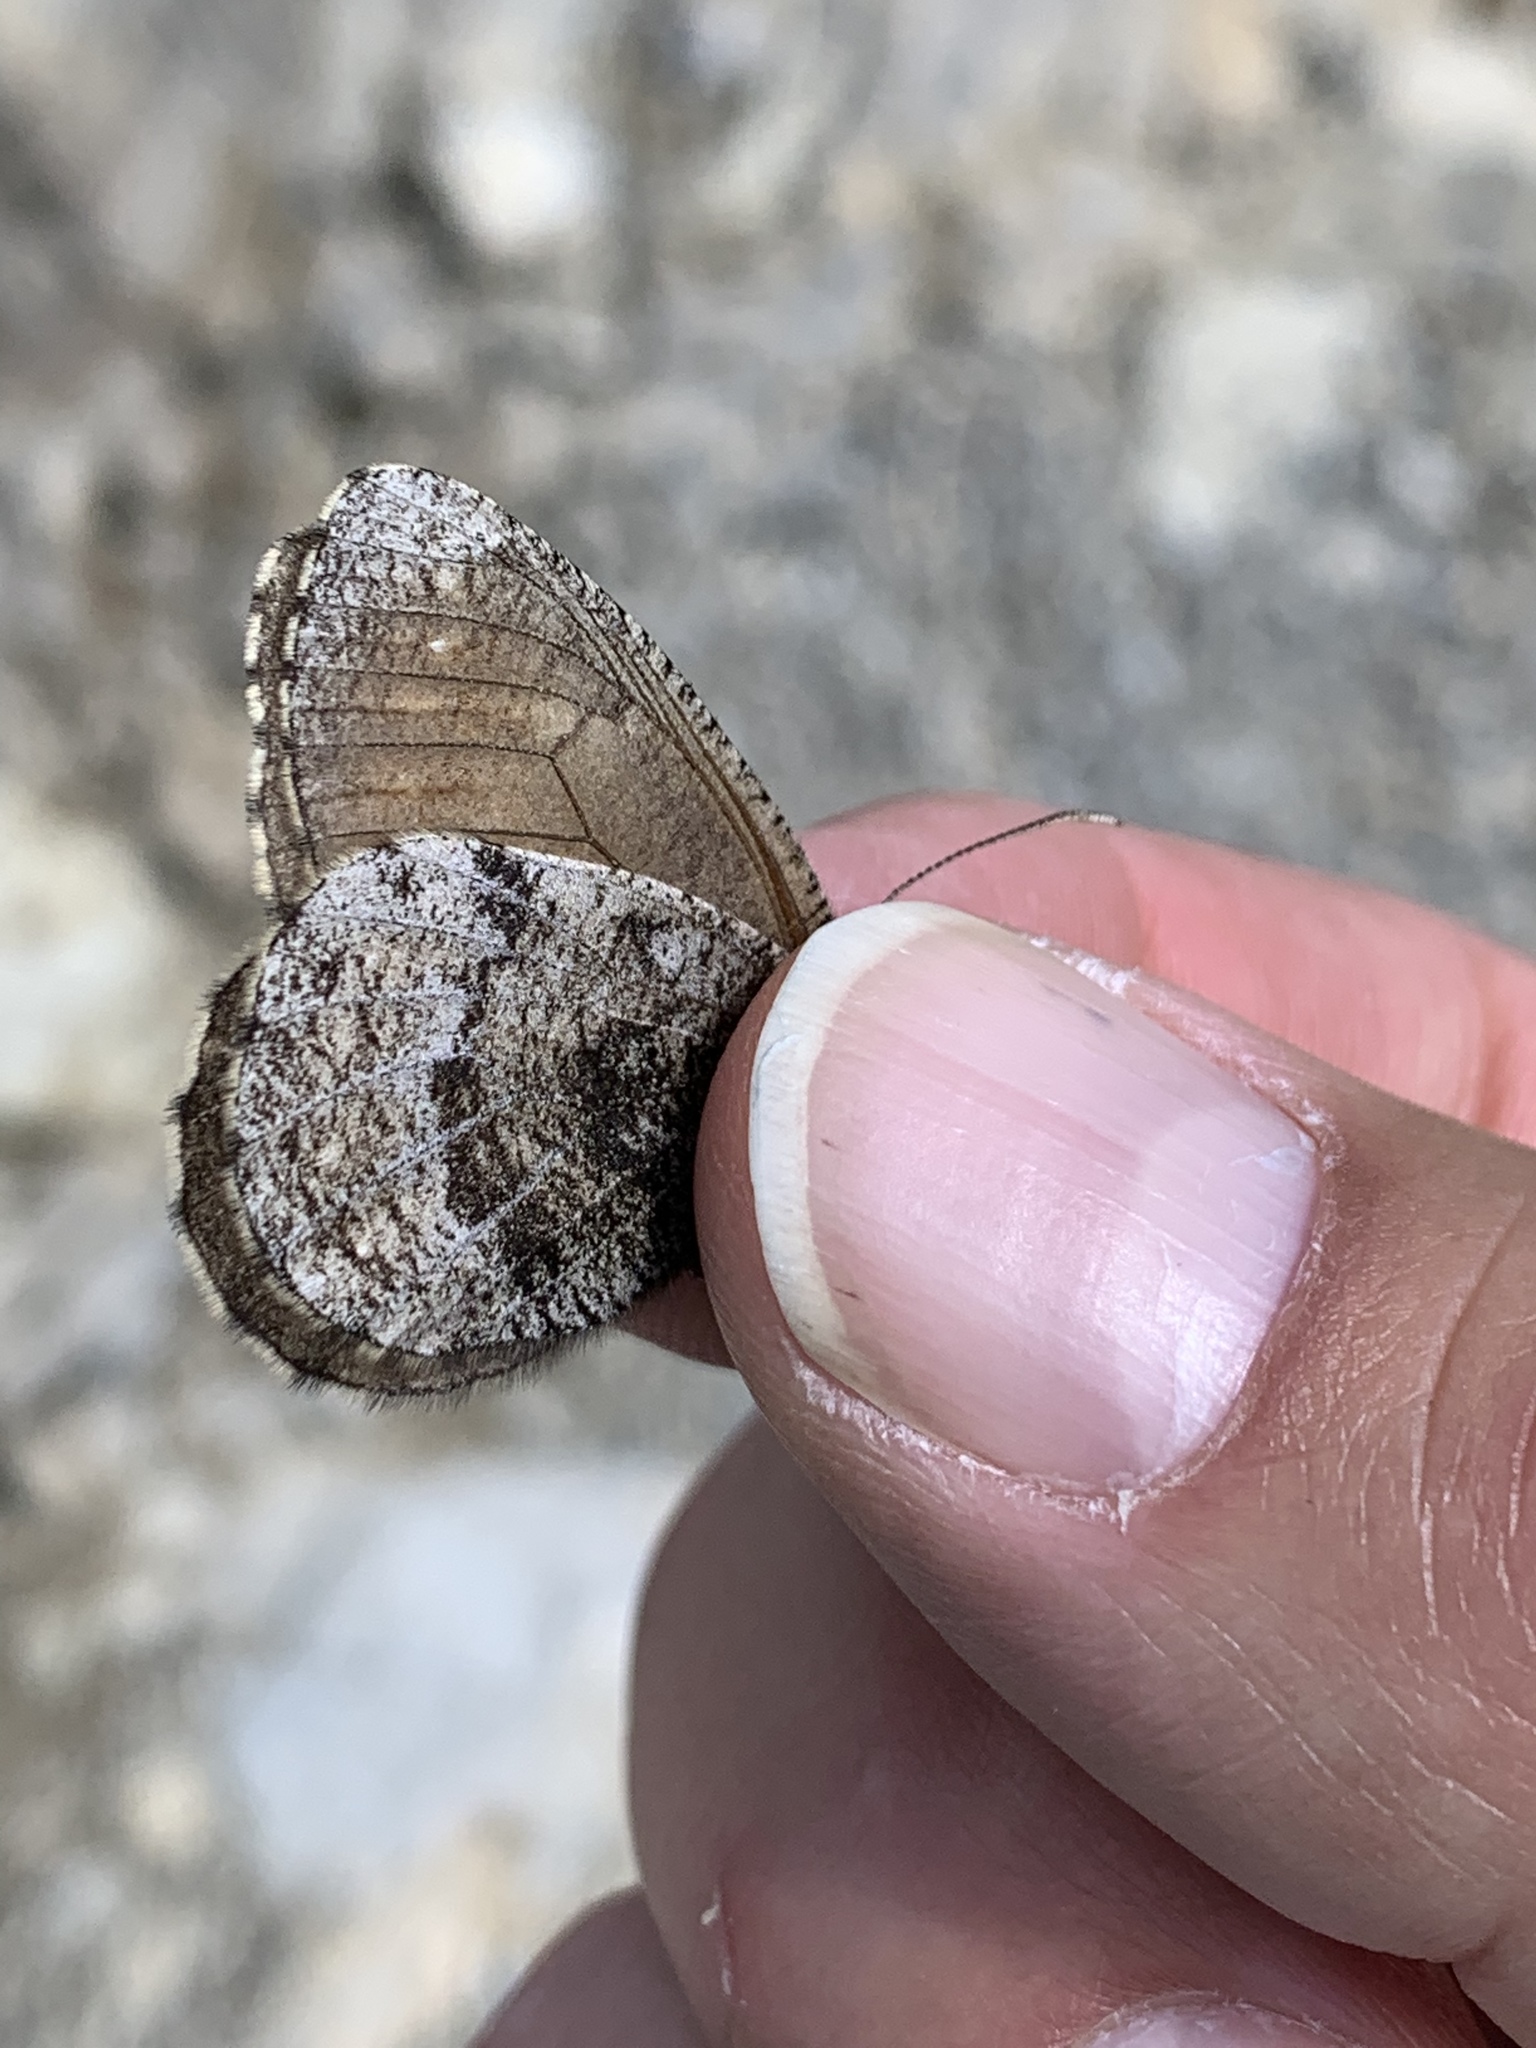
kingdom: Animalia
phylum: Arthropoda
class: Insecta
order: Lepidoptera
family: Nymphalidae
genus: Oeneis
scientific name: Oeneis bore
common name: Arctic grayling
